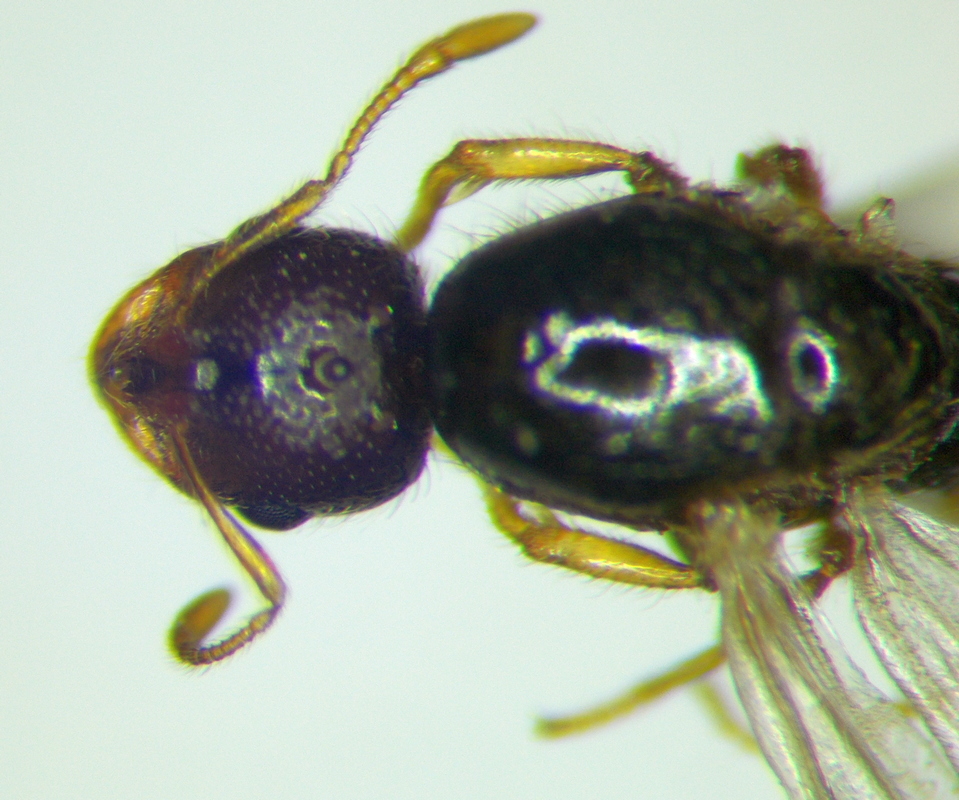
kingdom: Animalia
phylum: Arthropoda
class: Insecta
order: Hymenoptera
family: Formicidae
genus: Solenopsis
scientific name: Solenopsis fugax
